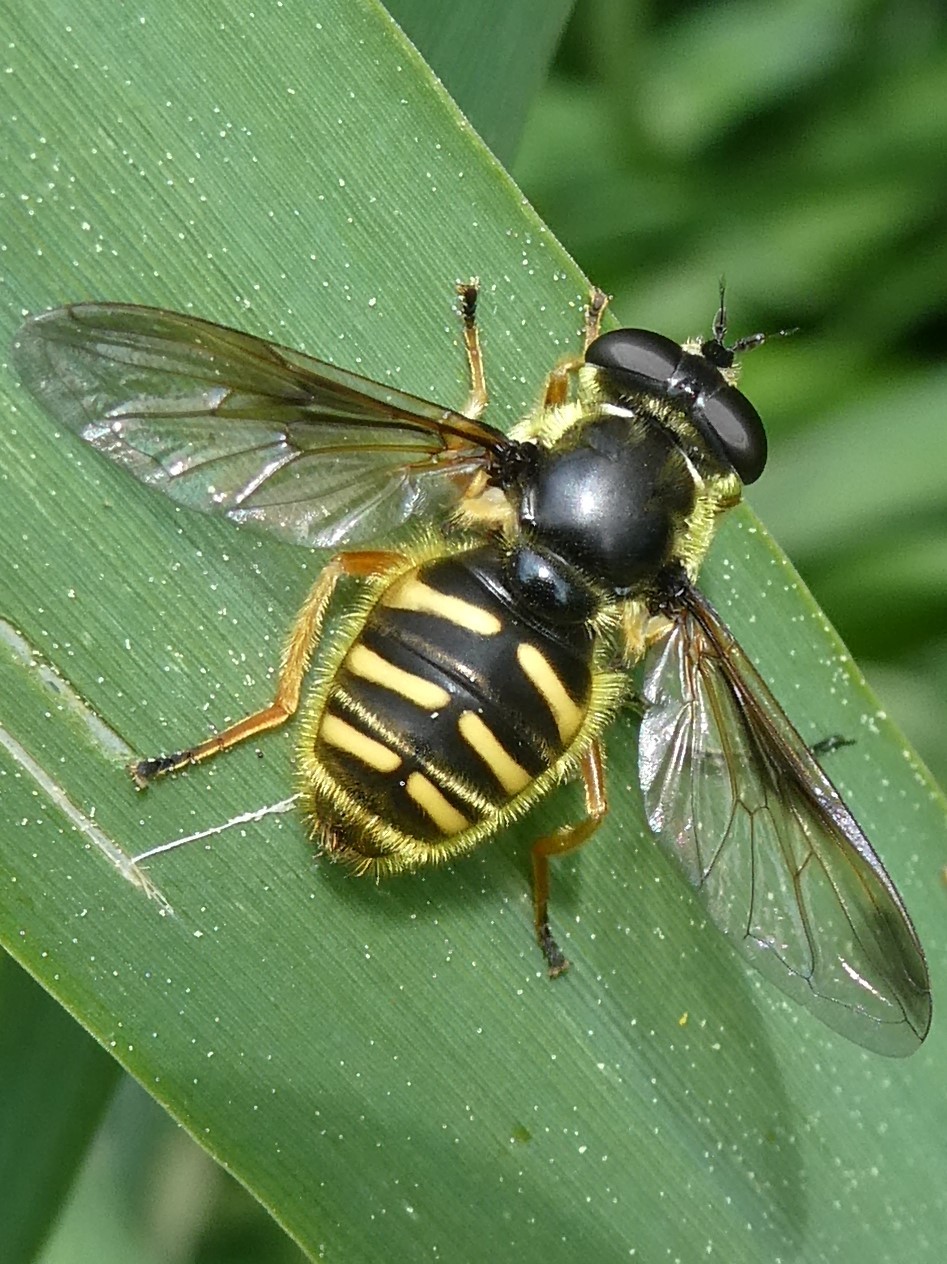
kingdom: Animalia
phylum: Arthropoda
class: Insecta
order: Diptera
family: Syrphidae
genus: Sericomyia
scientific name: Sericomyia chrysotoxoides
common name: Oblique-banded pond fly
